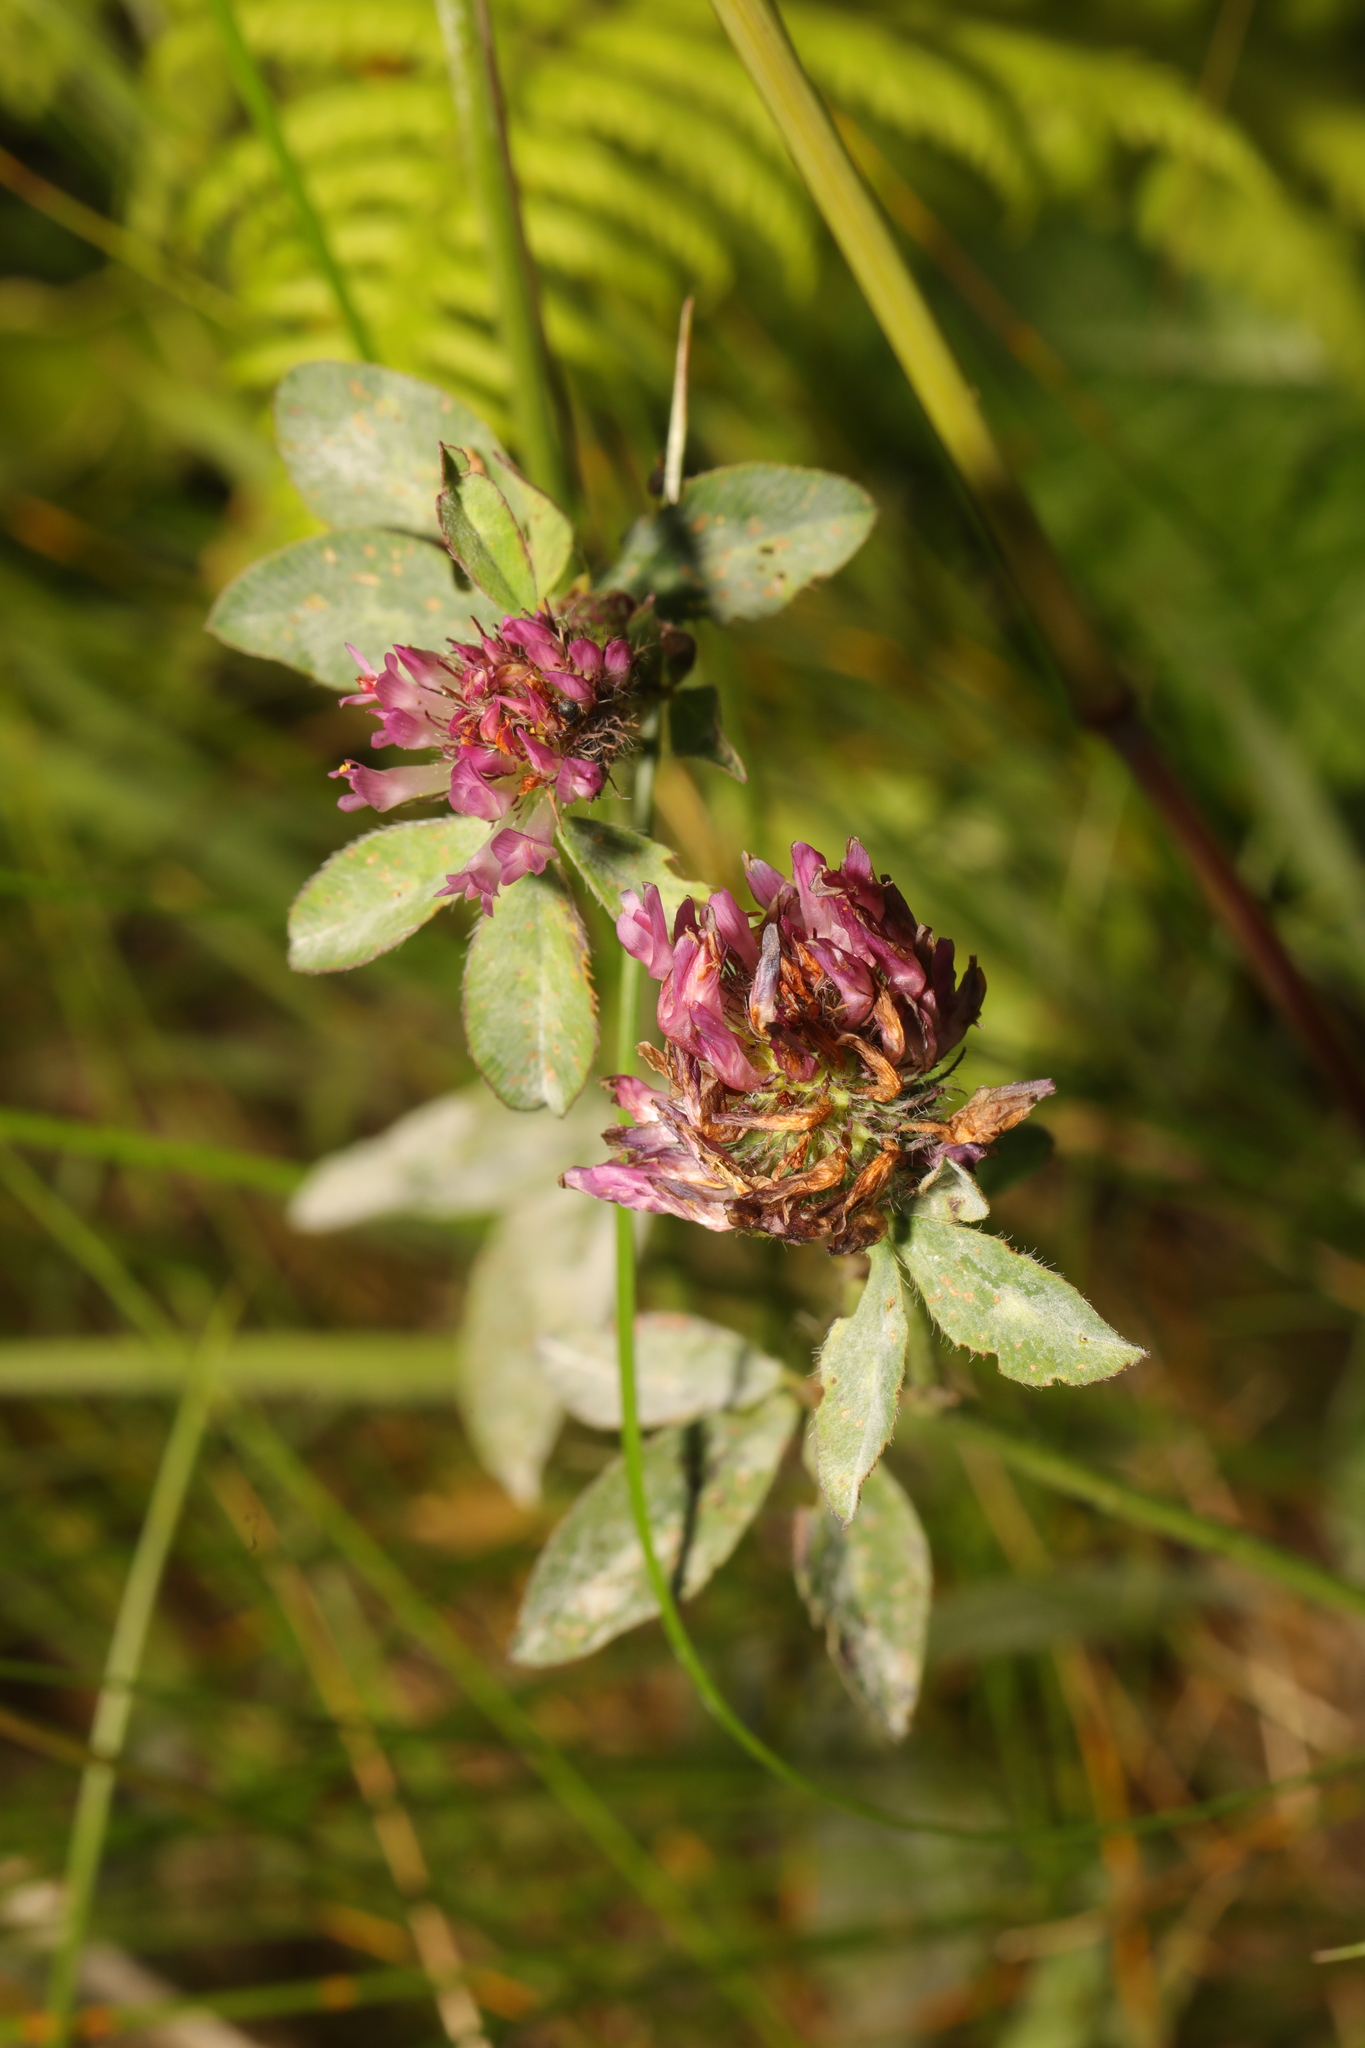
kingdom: Plantae
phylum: Tracheophyta
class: Magnoliopsida
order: Fabales
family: Fabaceae
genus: Trifolium
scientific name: Trifolium pratense
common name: Red clover
